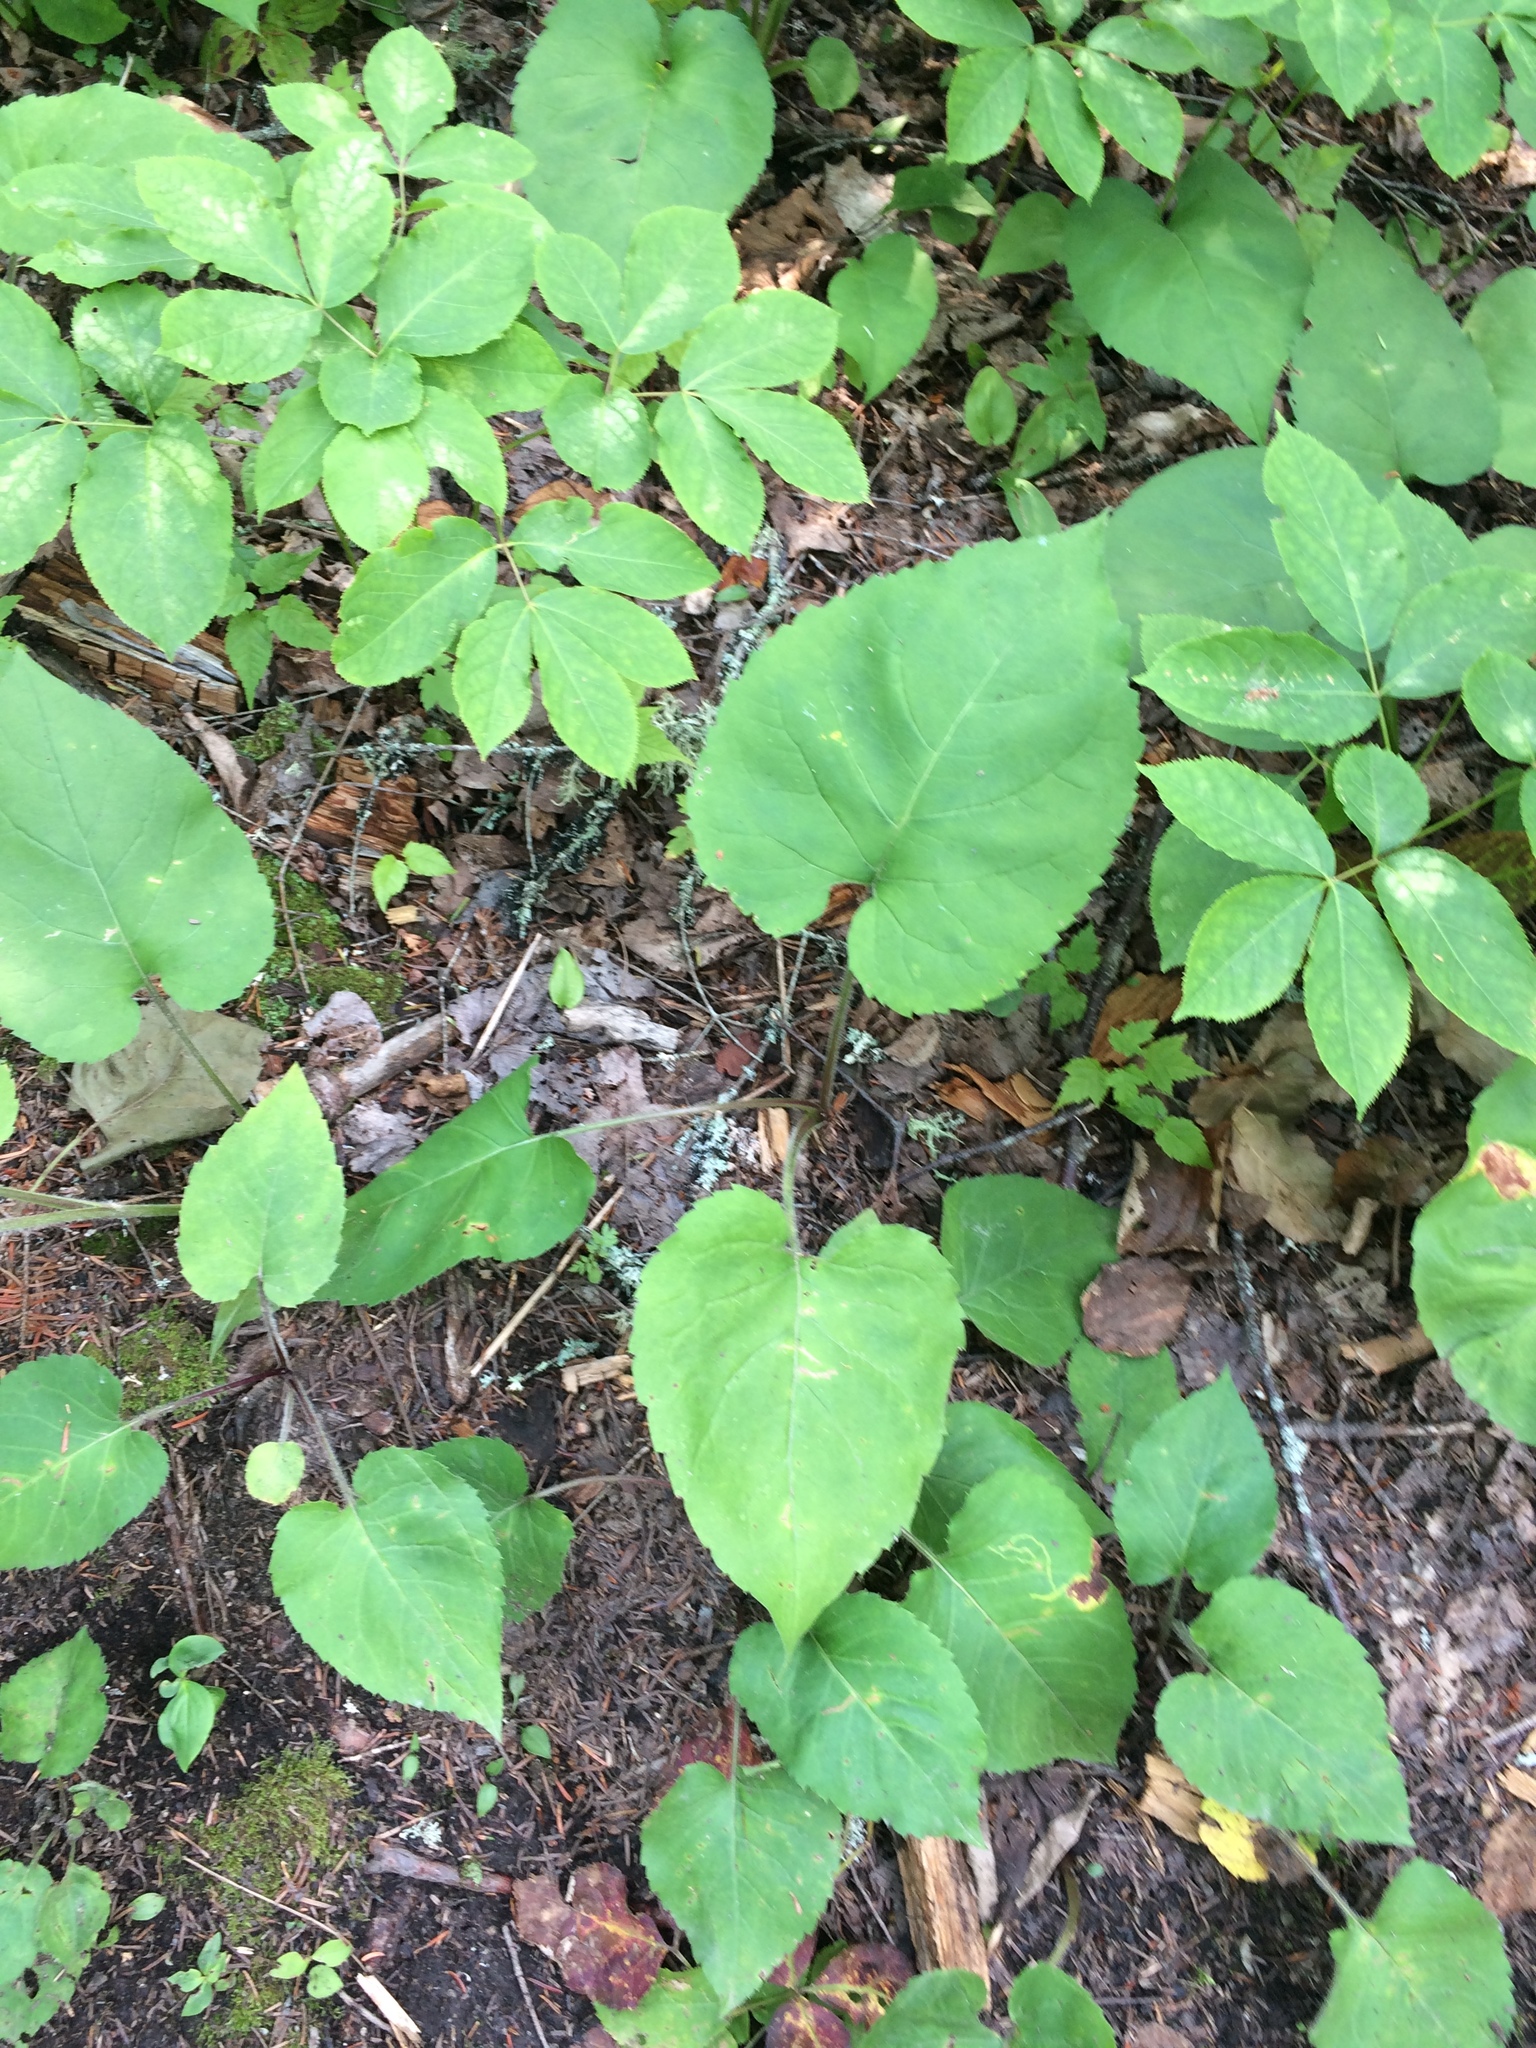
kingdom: Plantae
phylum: Tracheophyta
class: Magnoliopsida
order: Asterales
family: Asteraceae
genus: Eurybia
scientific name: Eurybia macrophylla
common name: Big-leaved aster
